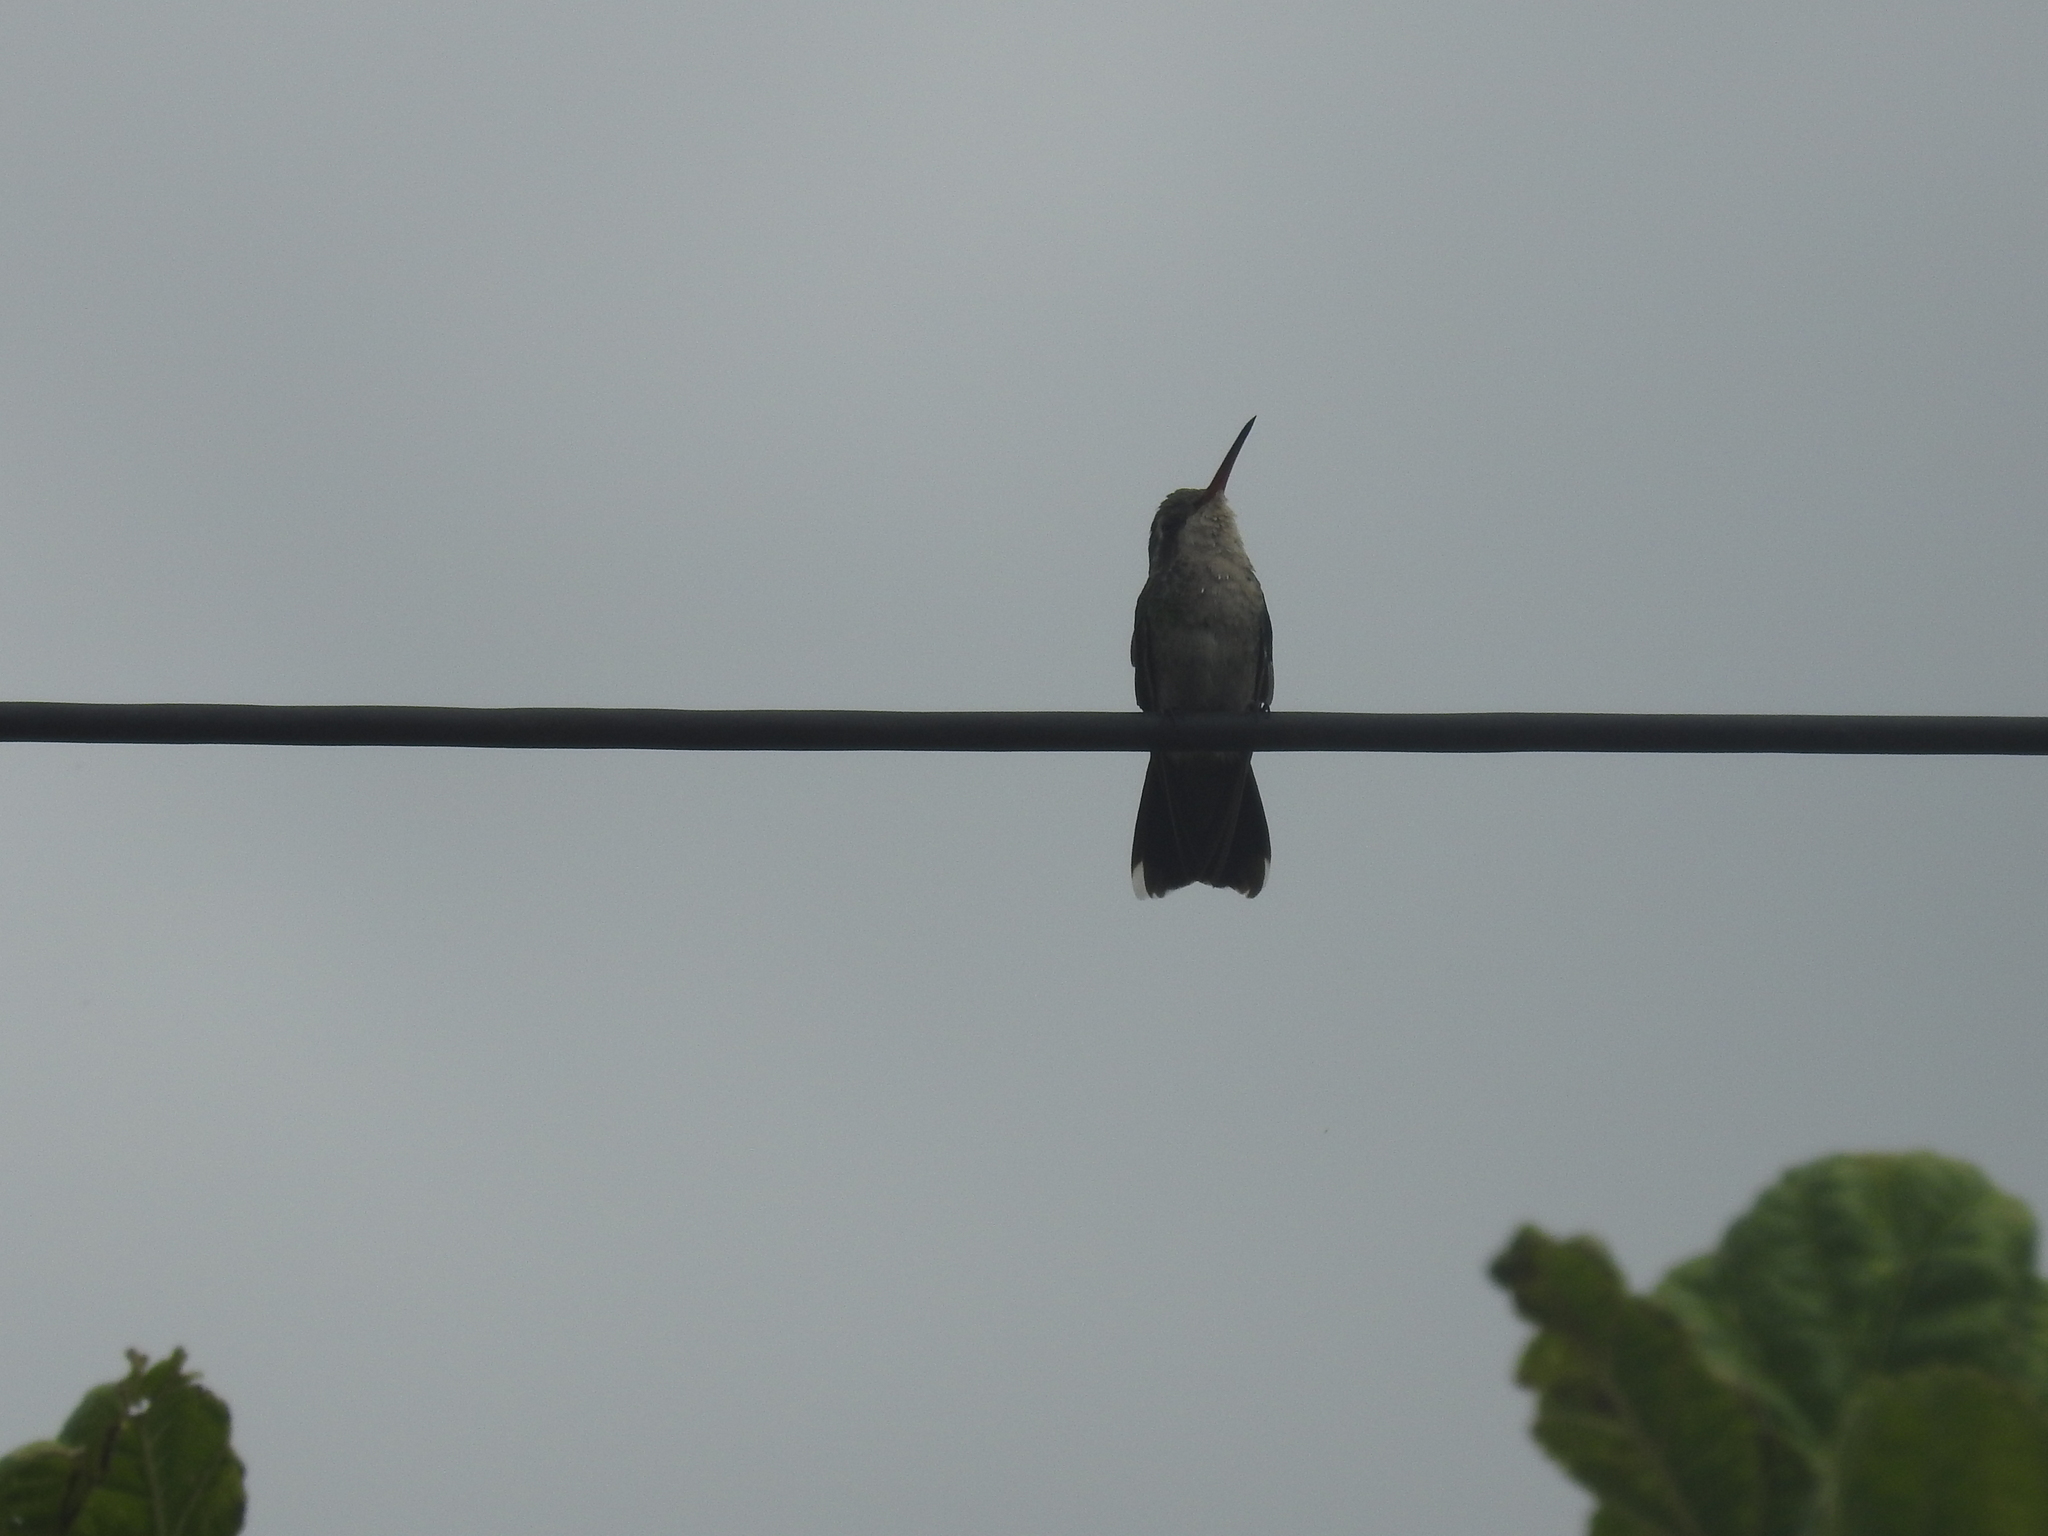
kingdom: Animalia
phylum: Chordata
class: Aves
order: Apodiformes
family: Trochilidae
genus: Chlorostilbon
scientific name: Chlorostilbon lucidus
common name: Glittering-bellied emerald
